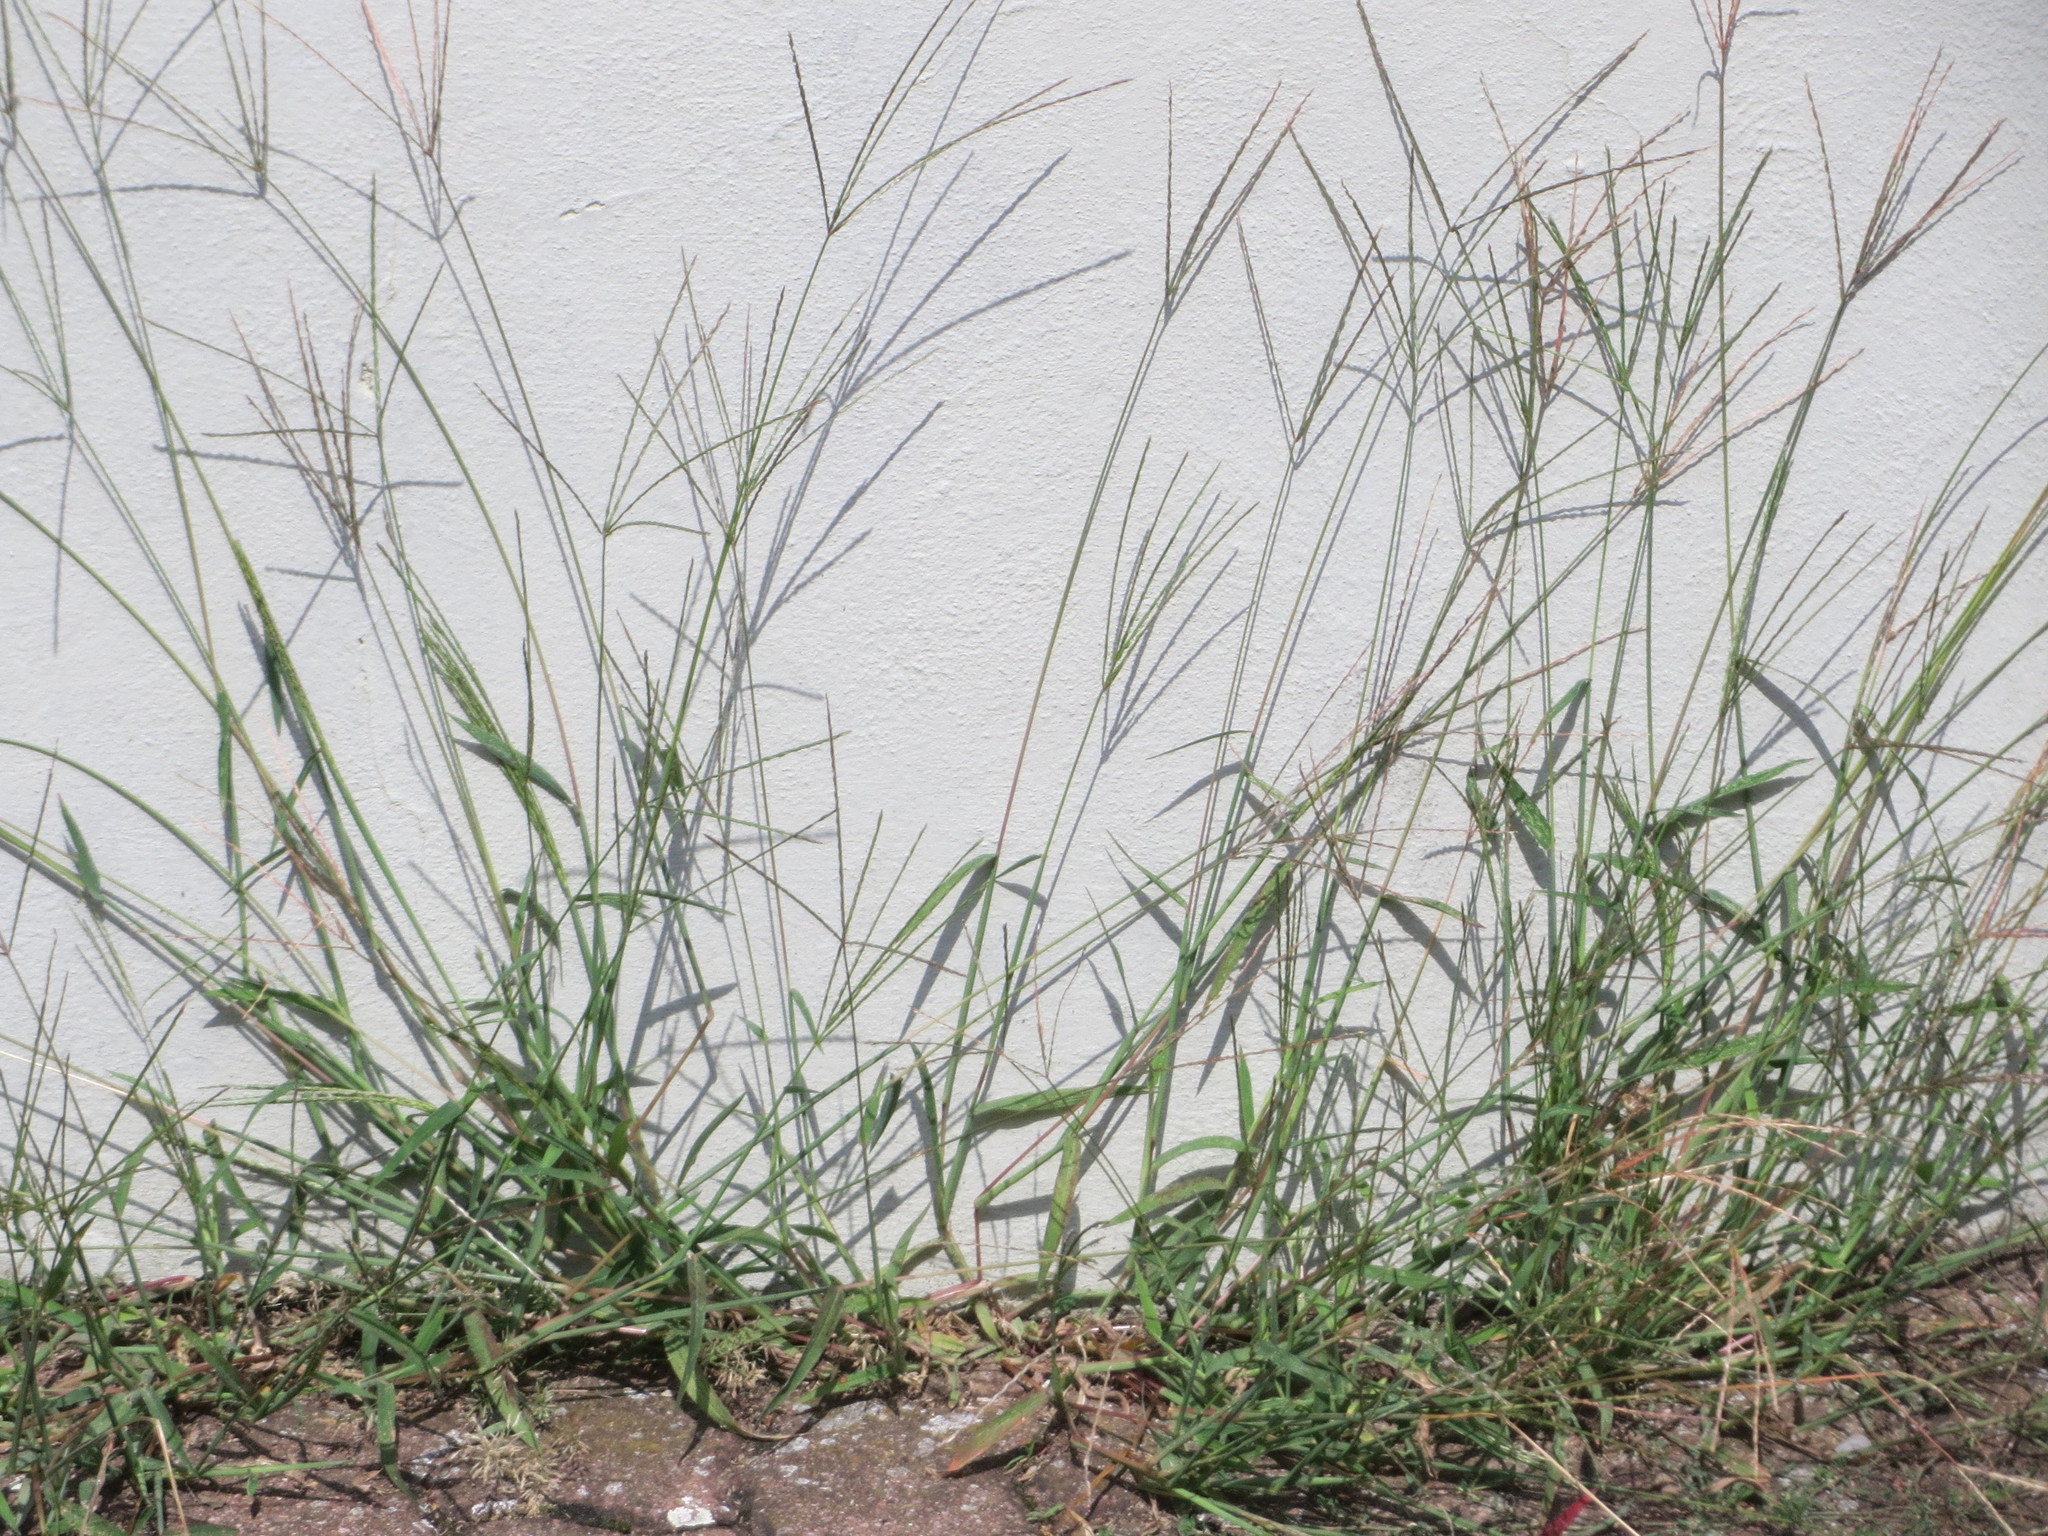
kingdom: Plantae
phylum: Tracheophyta
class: Liliopsida
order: Poales
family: Poaceae
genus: Digitaria
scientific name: Digitaria sanguinalis
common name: Hairy crabgrass
